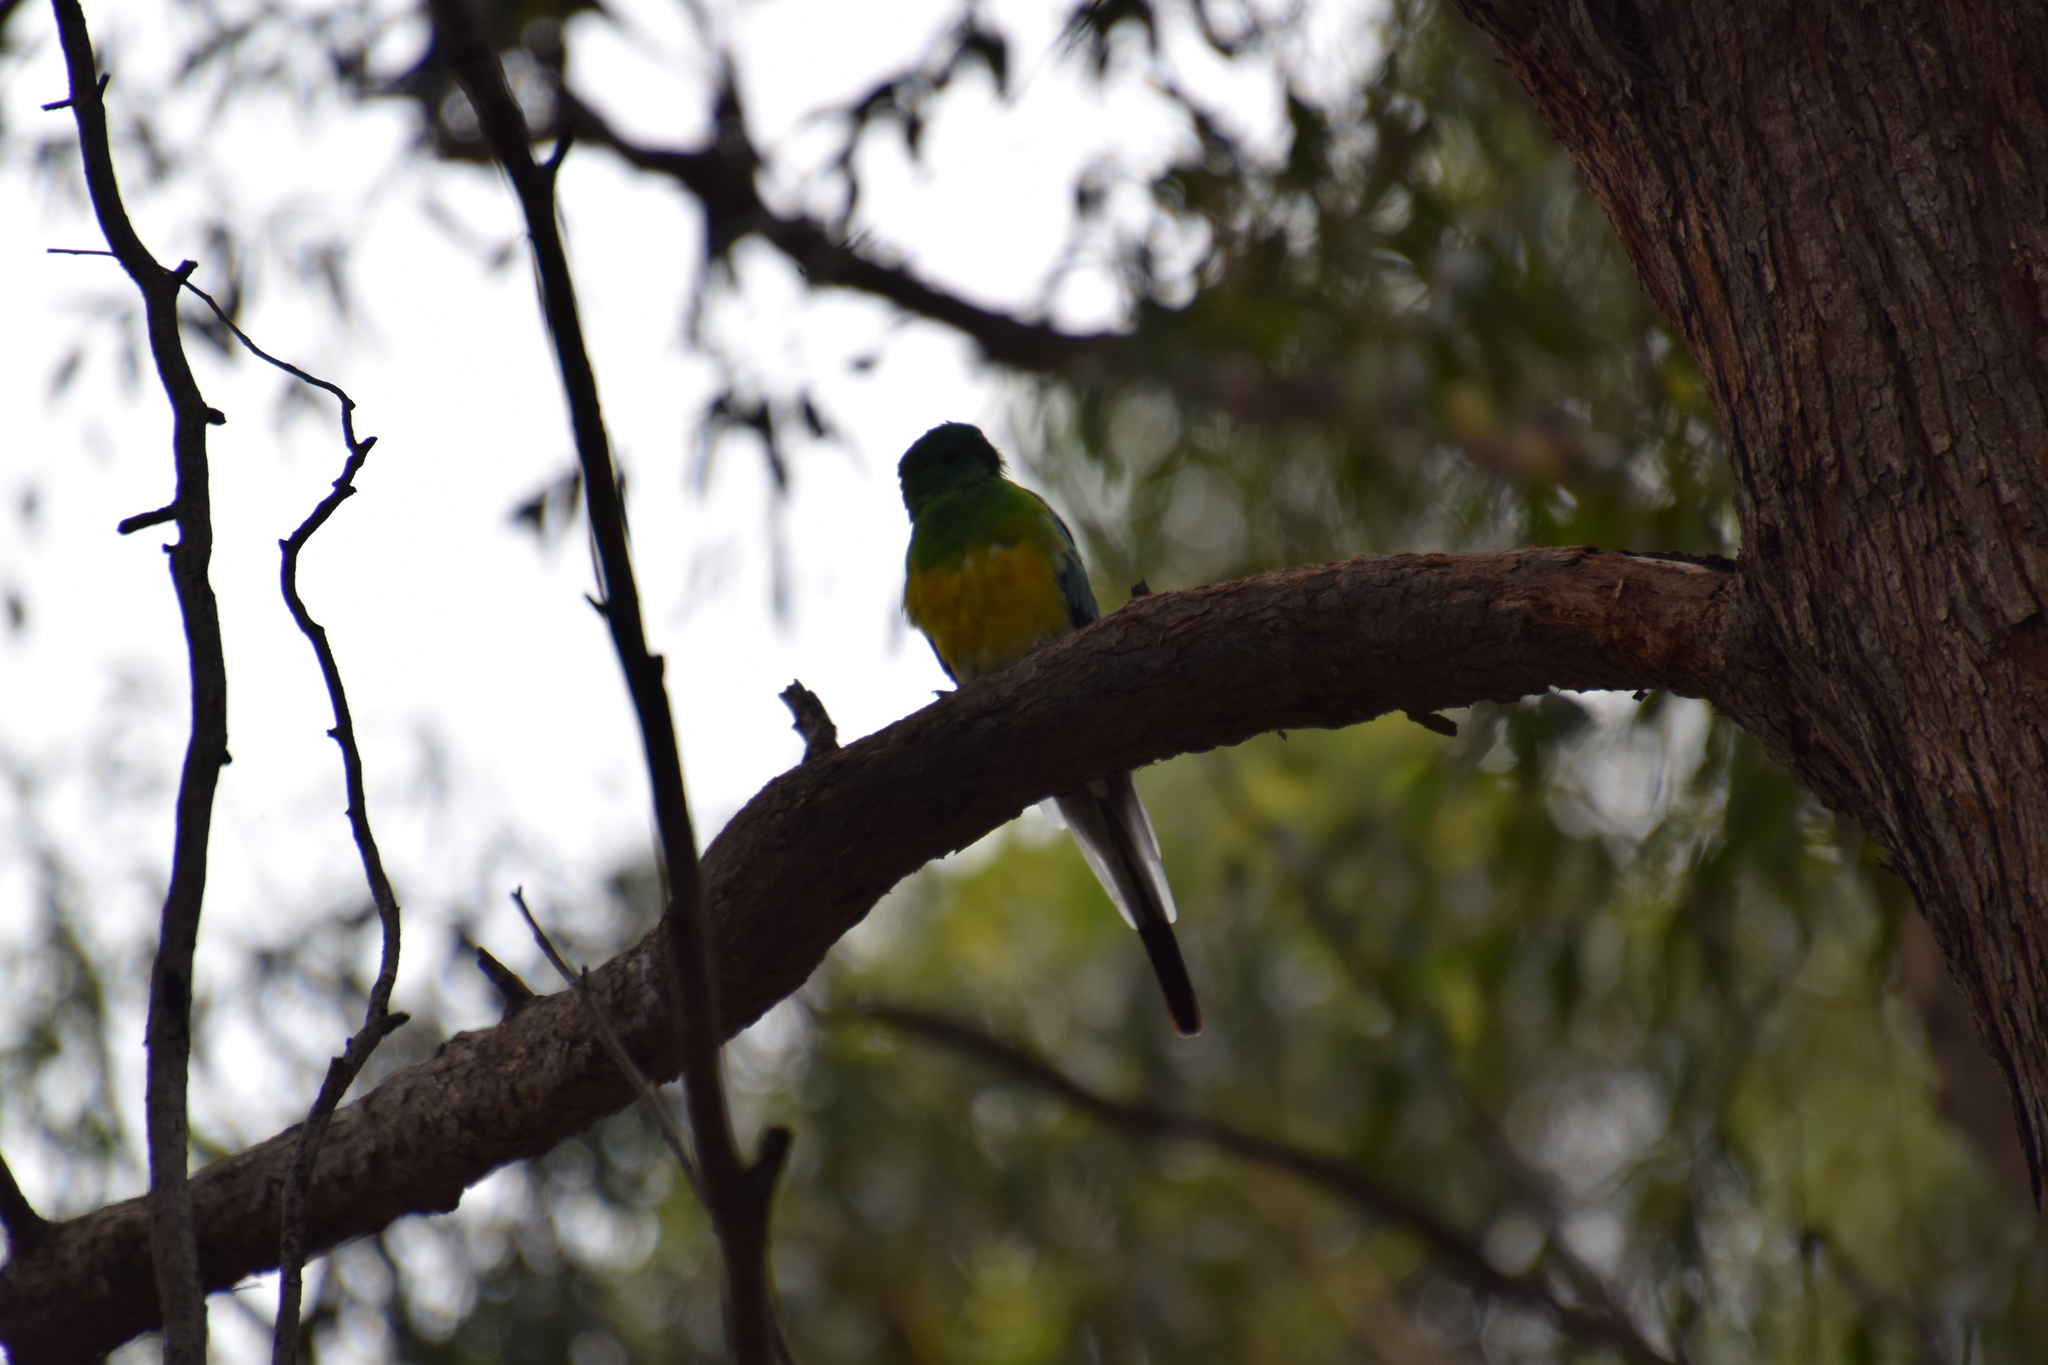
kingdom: Animalia
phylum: Chordata
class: Aves
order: Psittaciformes
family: Psittacidae
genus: Psephotus
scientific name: Psephotus haematonotus
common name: Red-rumped parrot
